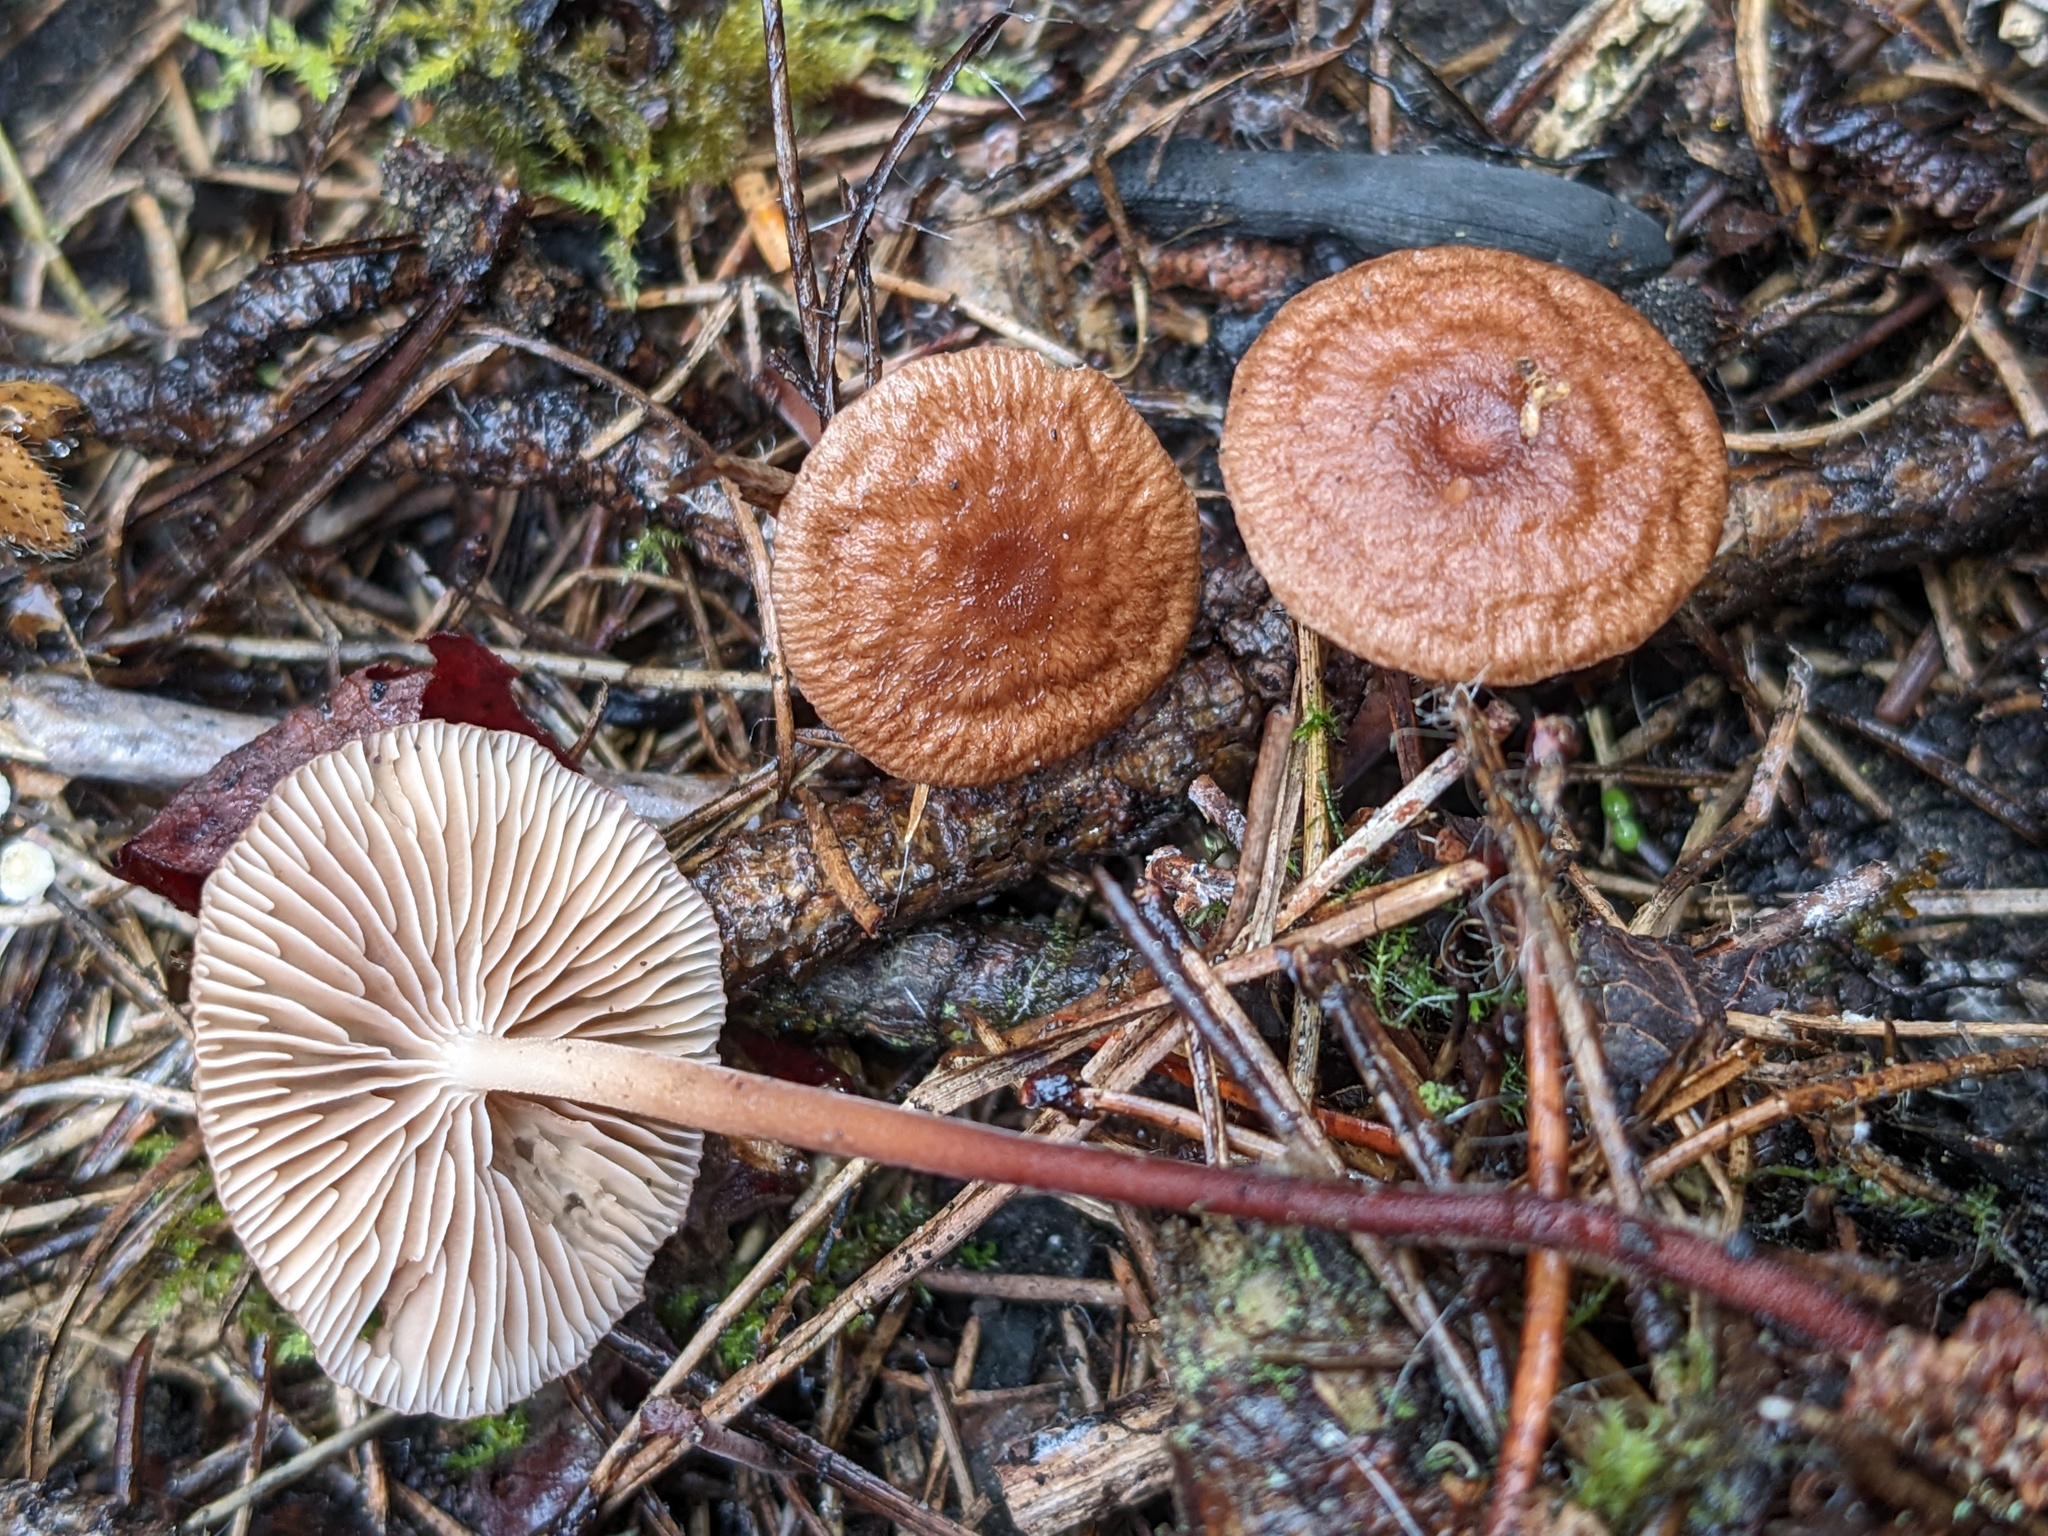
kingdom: Fungi
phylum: Basidiomycota
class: Agaricomycetes
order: Agaricales
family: Omphalotaceae
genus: Collybiopsis
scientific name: Collybiopsis villosipes
